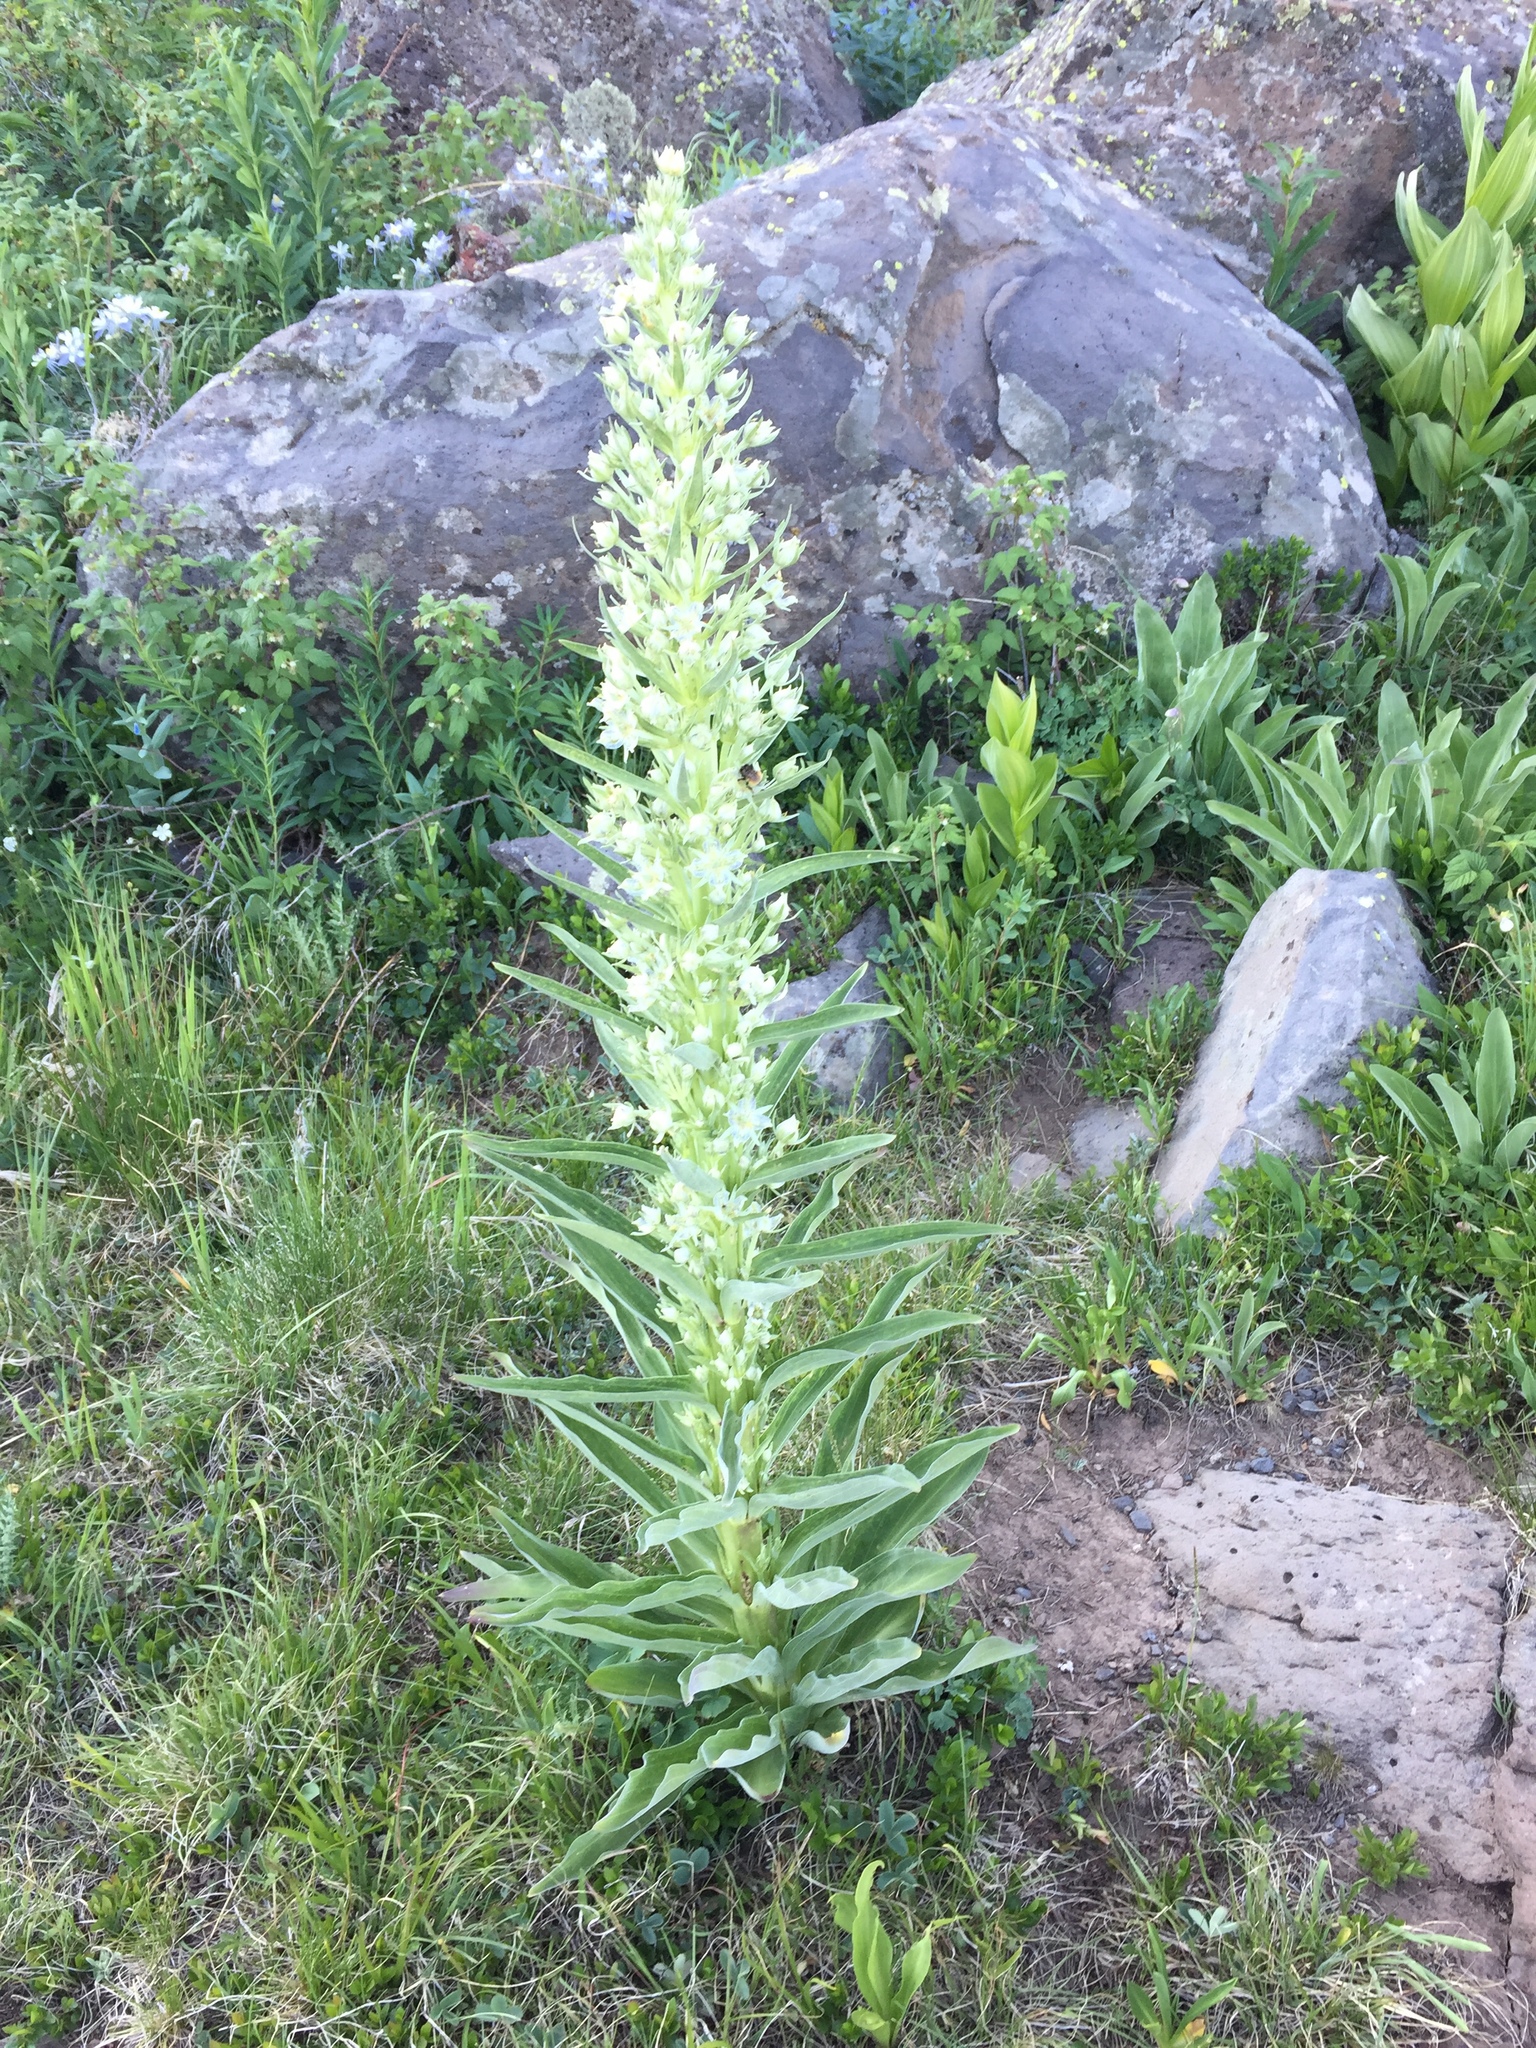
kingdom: Plantae
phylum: Tracheophyta
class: Magnoliopsida
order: Gentianales
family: Gentianaceae
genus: Frasera
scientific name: Frasera speciosa
